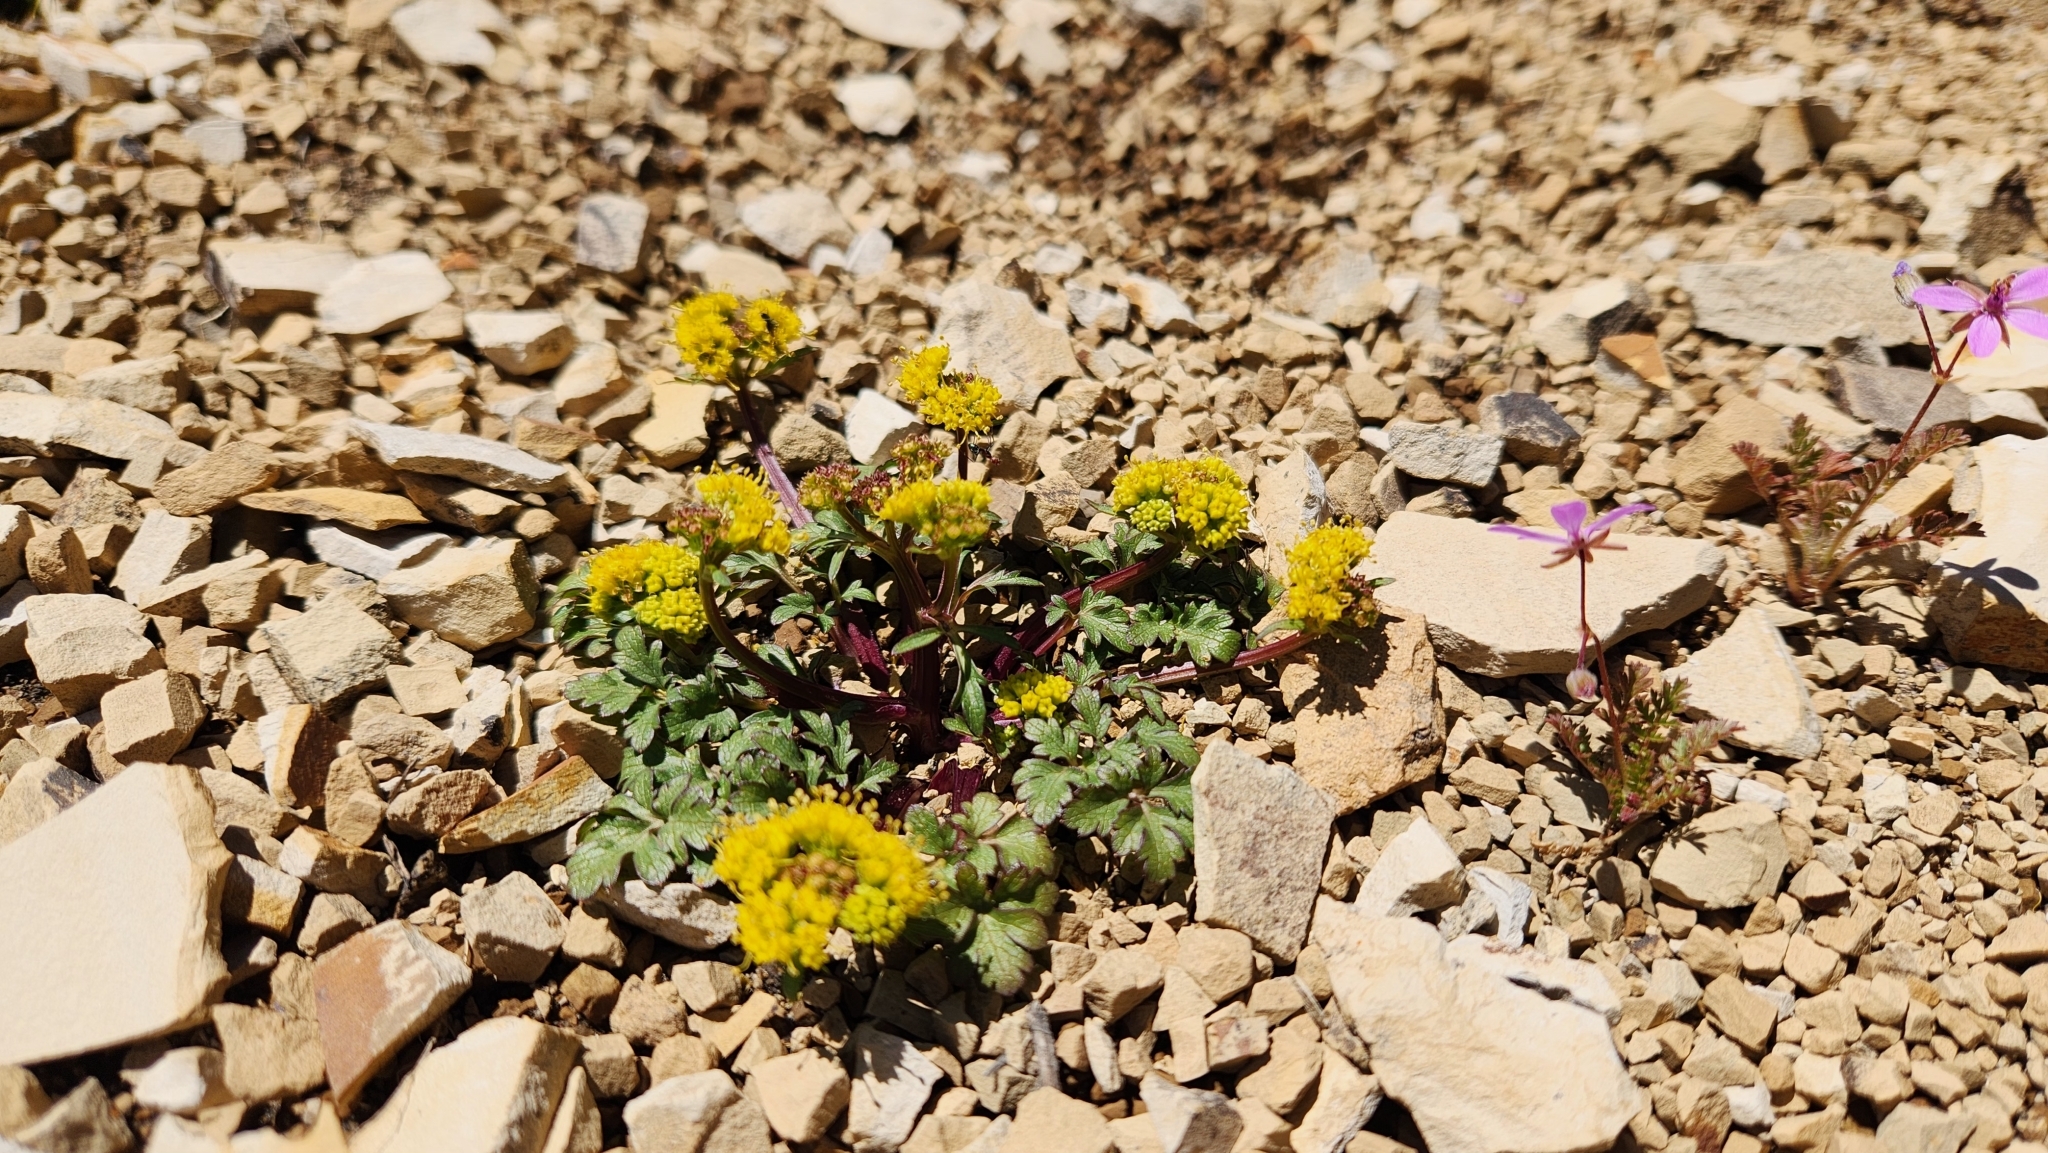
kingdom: Plantae
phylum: Tracheophyta
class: Magnoliopsida
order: Apiales
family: Apiaceae
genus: Sanicula
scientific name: Sanicula graveolens
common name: Sierra sanicle
